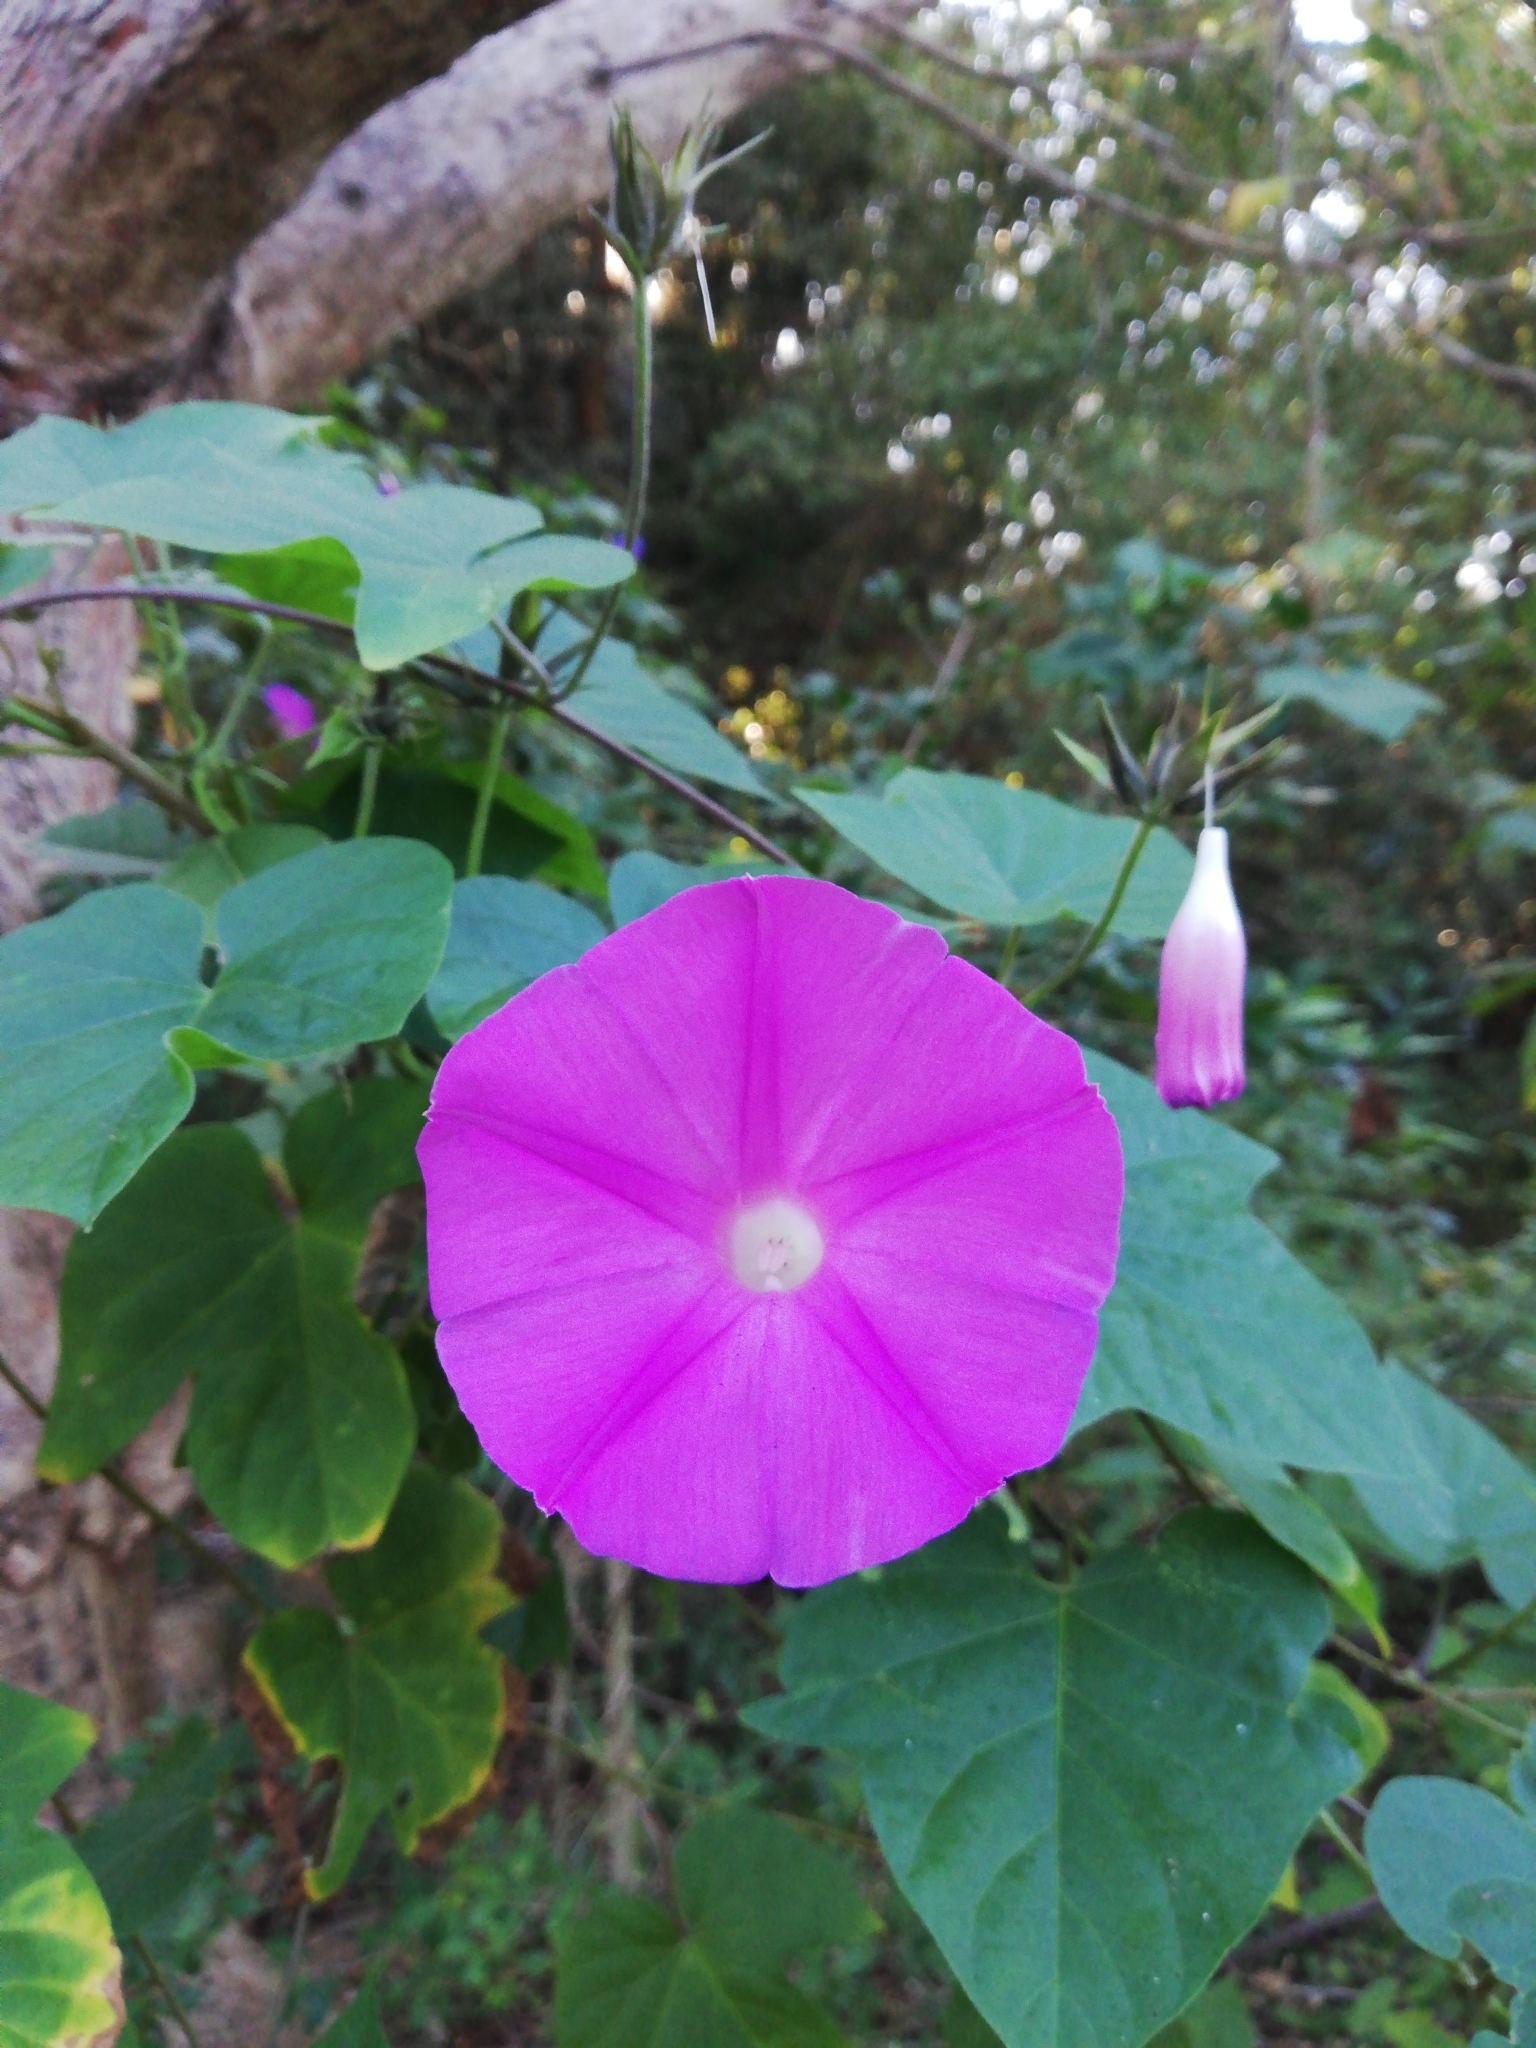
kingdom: Plantae
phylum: Tracheophyta
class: Magnoliopsida
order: Solanales
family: Convolvulaceae
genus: Ipomoea
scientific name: Ipomoea indica
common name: Blue dawnflower
